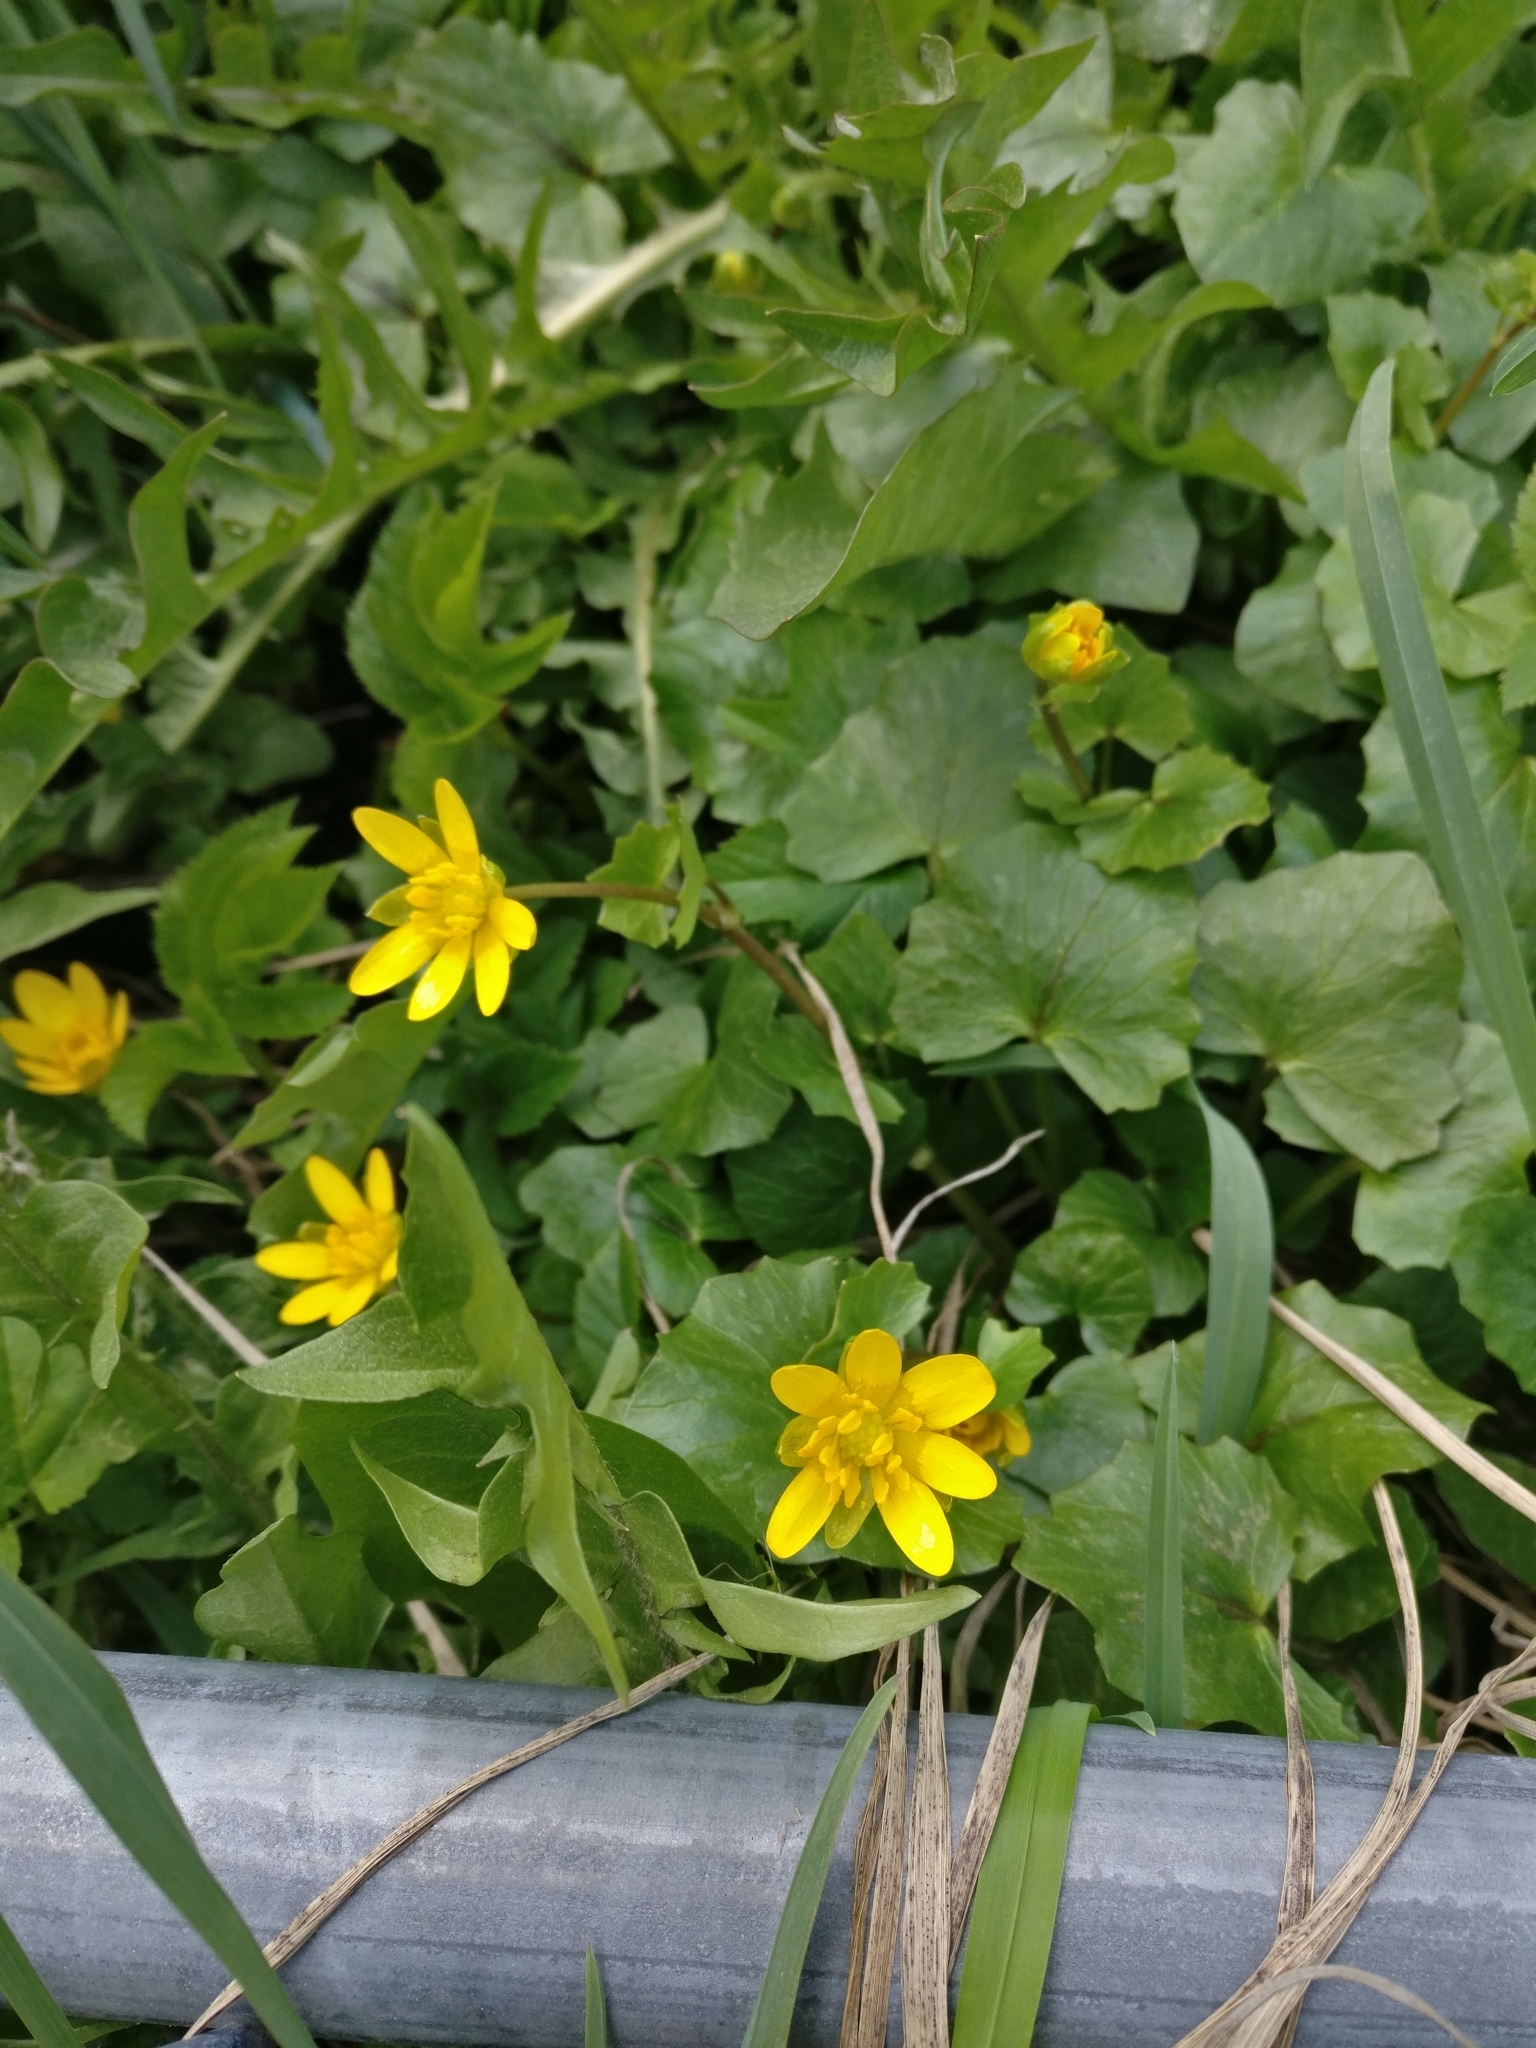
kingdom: Plantae
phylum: Tracheophyta
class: Magnoliopsida
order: Ranunculales
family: Ranunculaceae
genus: Ficaria
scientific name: Ficaria verna
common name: Lesser celandine
